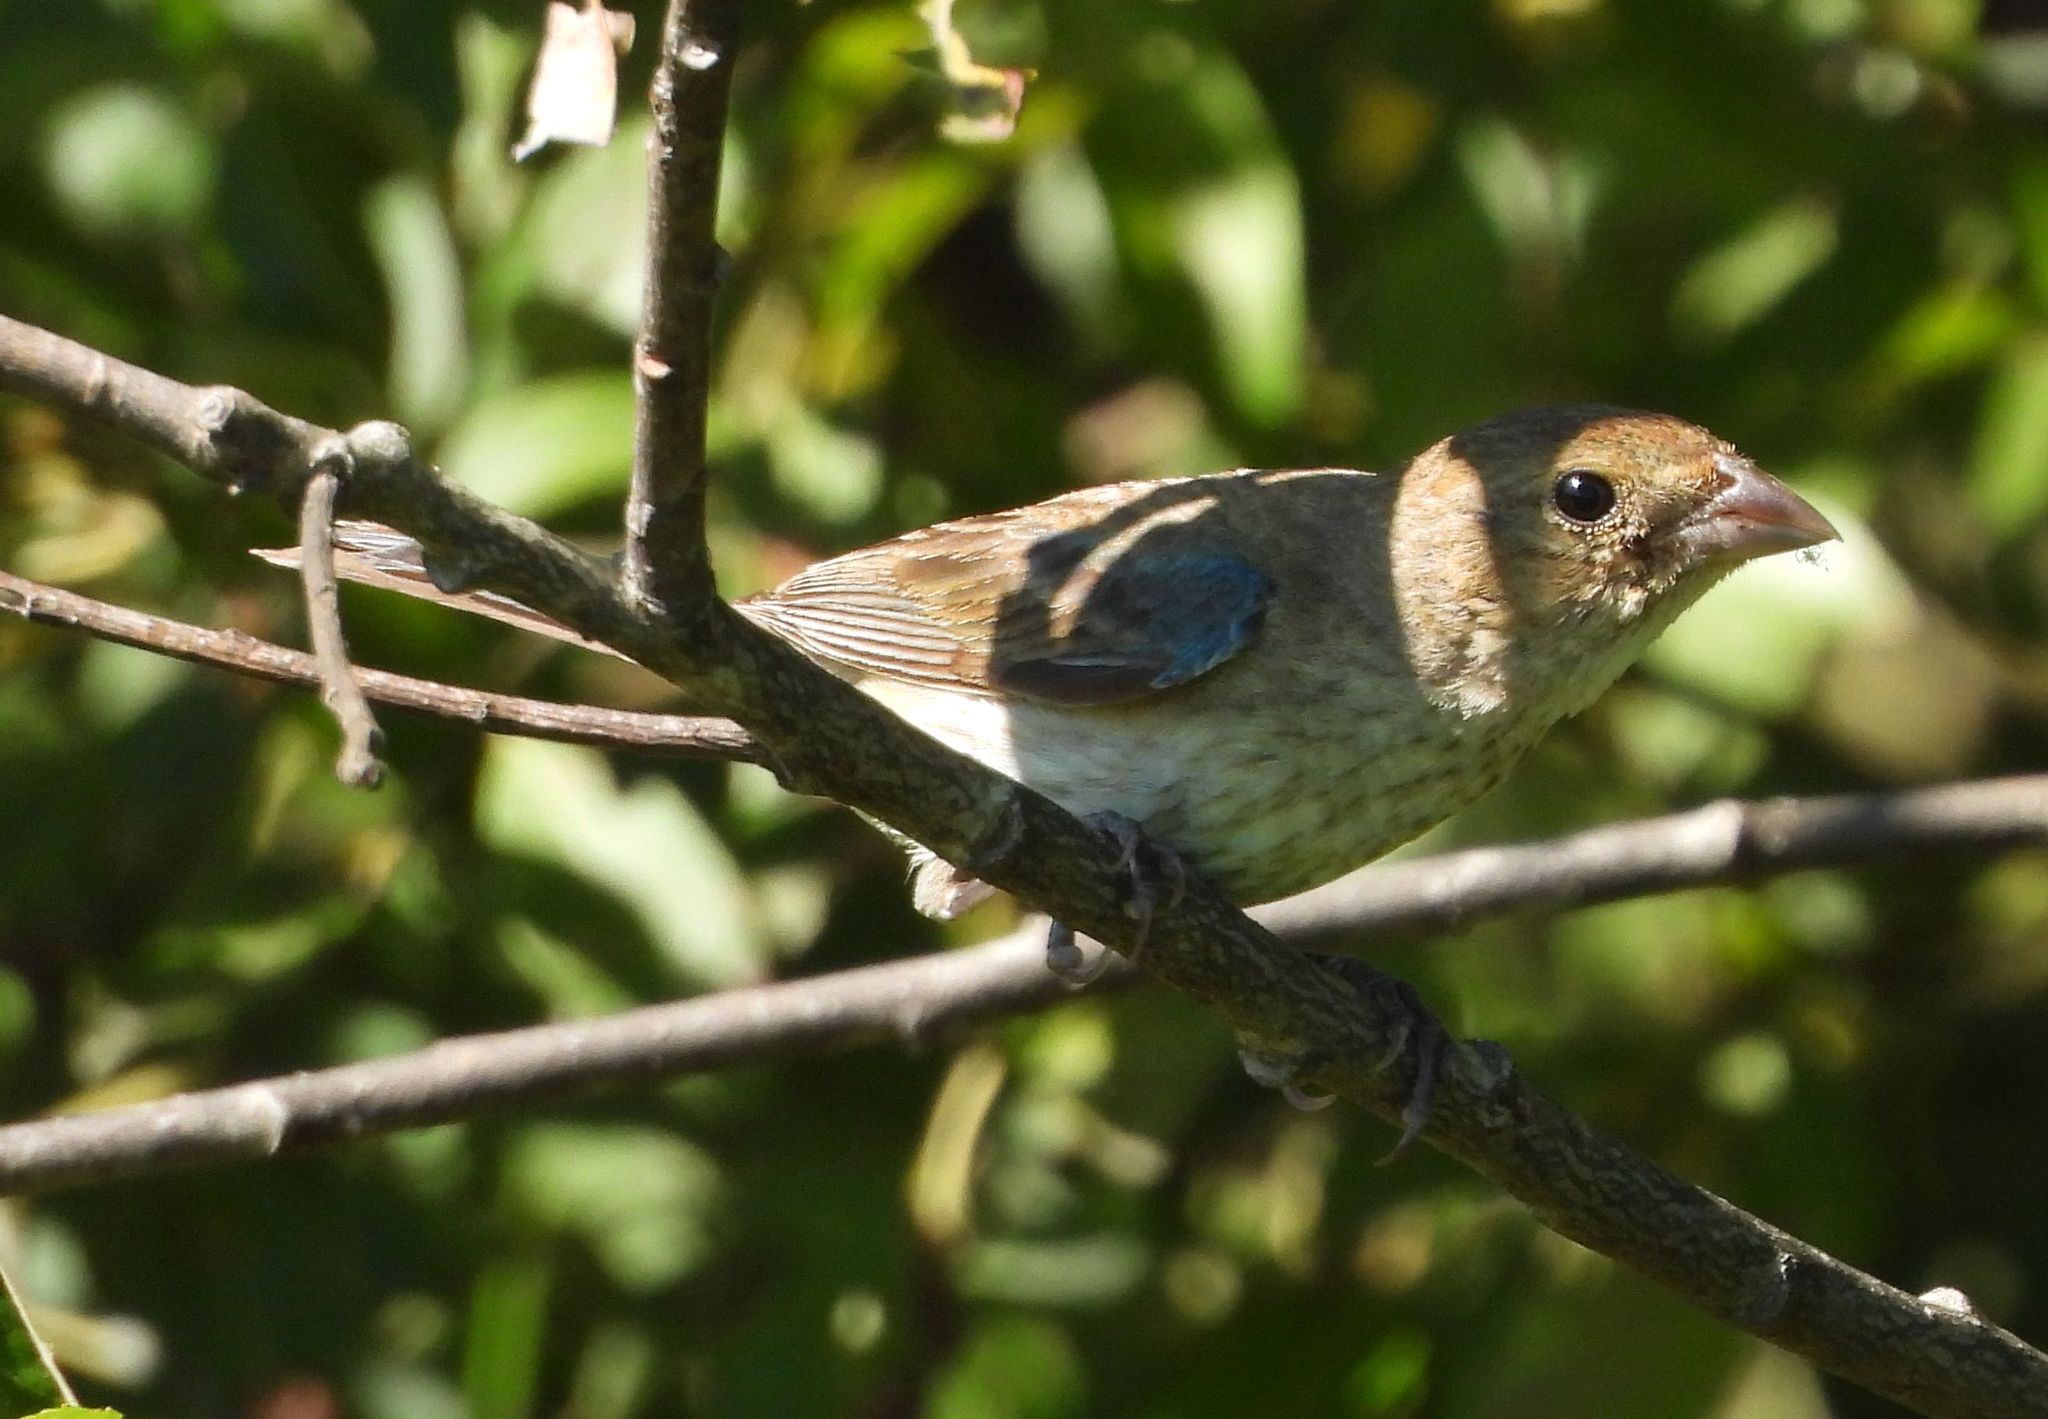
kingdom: Animalia
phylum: Chordata
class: Aves
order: Passeriformes
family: Cardinalidae
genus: Passerina
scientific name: Passerina cyanea
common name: Indigo bunting
